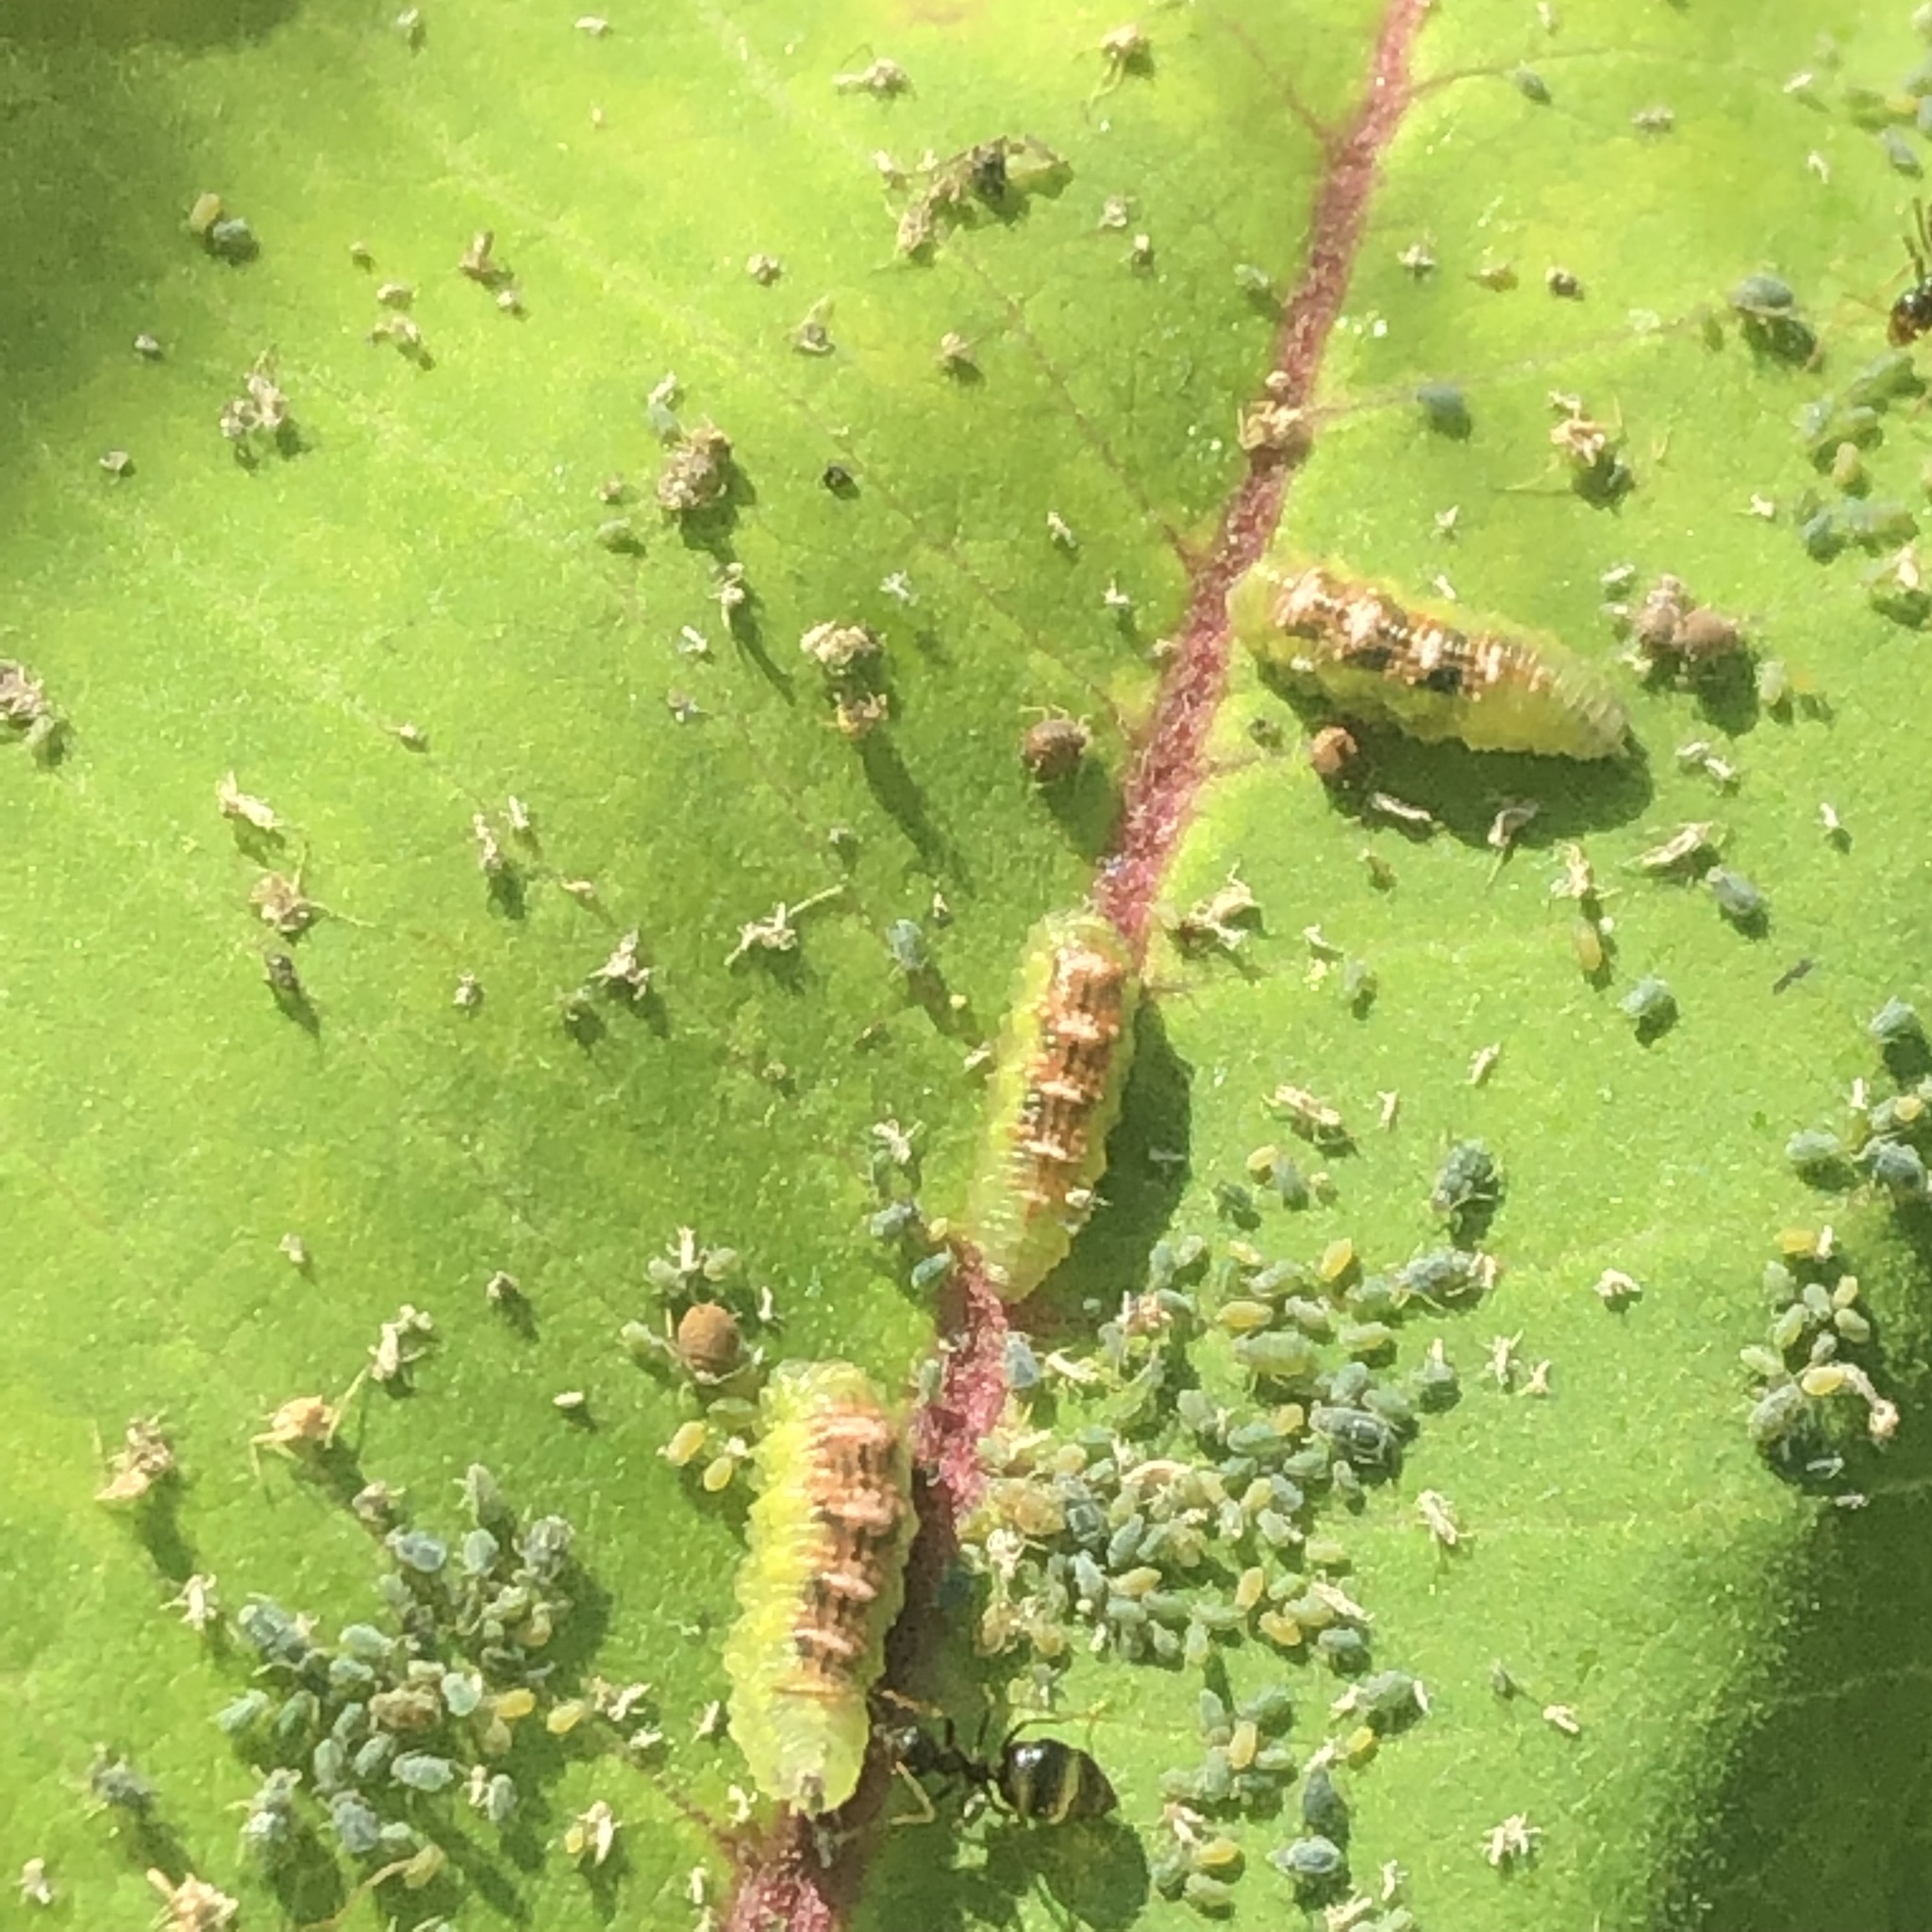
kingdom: Animalia
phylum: Arthropoda
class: Insecta
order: Diptera
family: Syrphidae
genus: Eupeodes
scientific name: Eupeodes pomus
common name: Short-tailed aphideater
